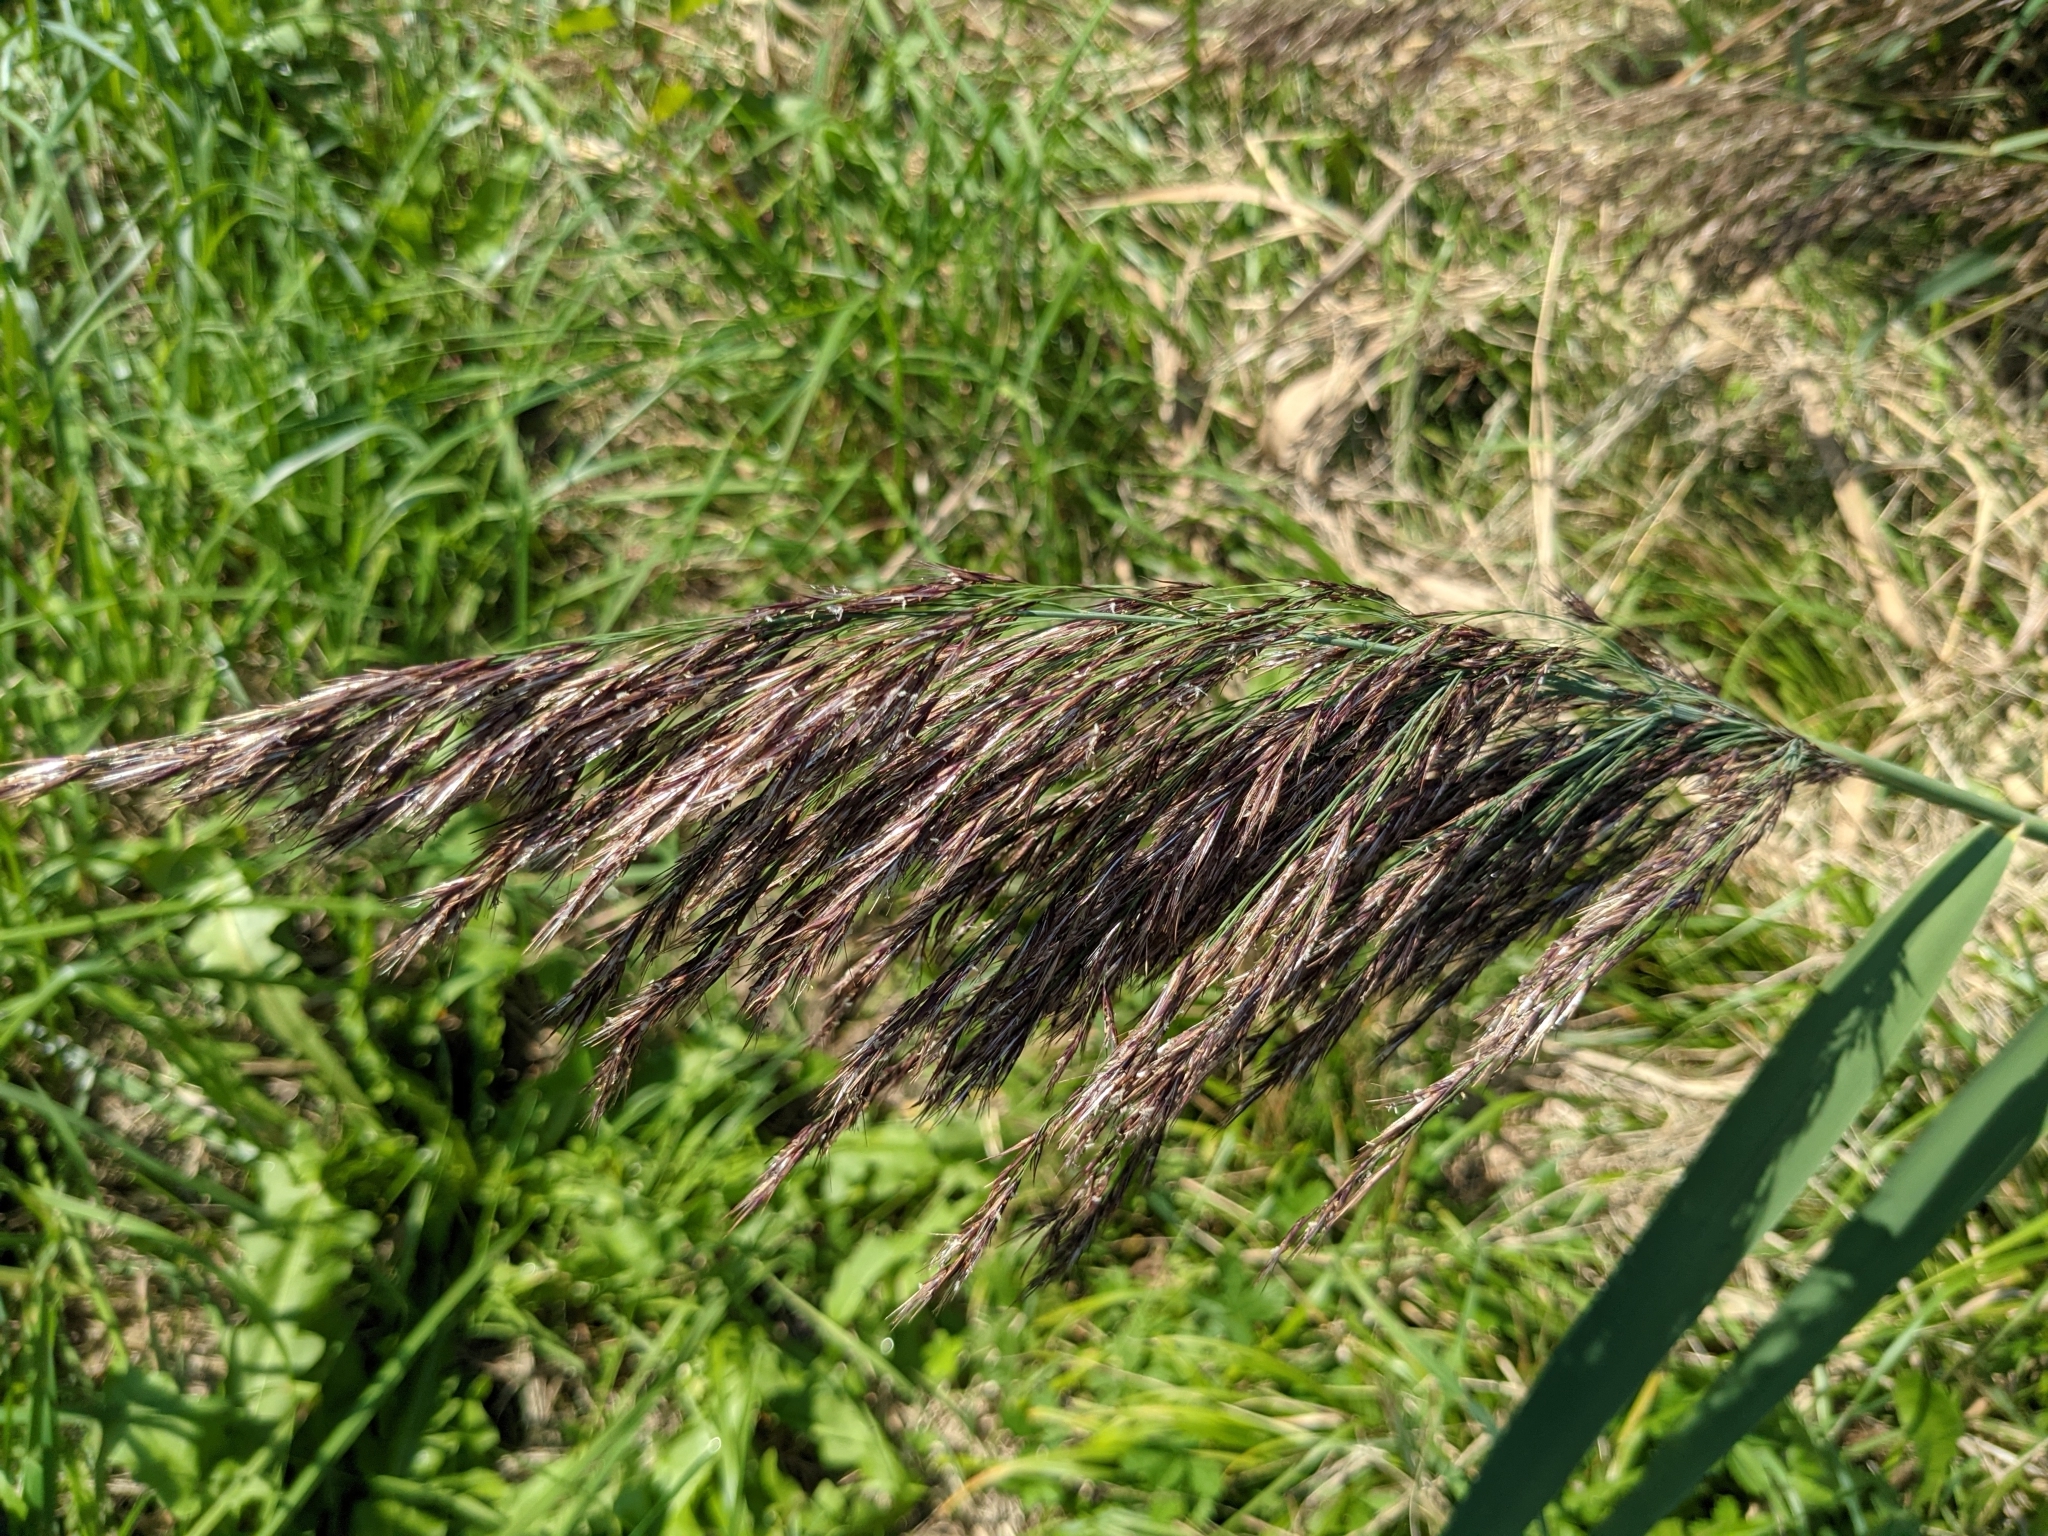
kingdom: Plantae
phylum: Tracheophyta
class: Liliopsida
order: Poales
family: Poaceae
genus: Phragmites
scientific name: Phragmites australis
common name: Common reed
